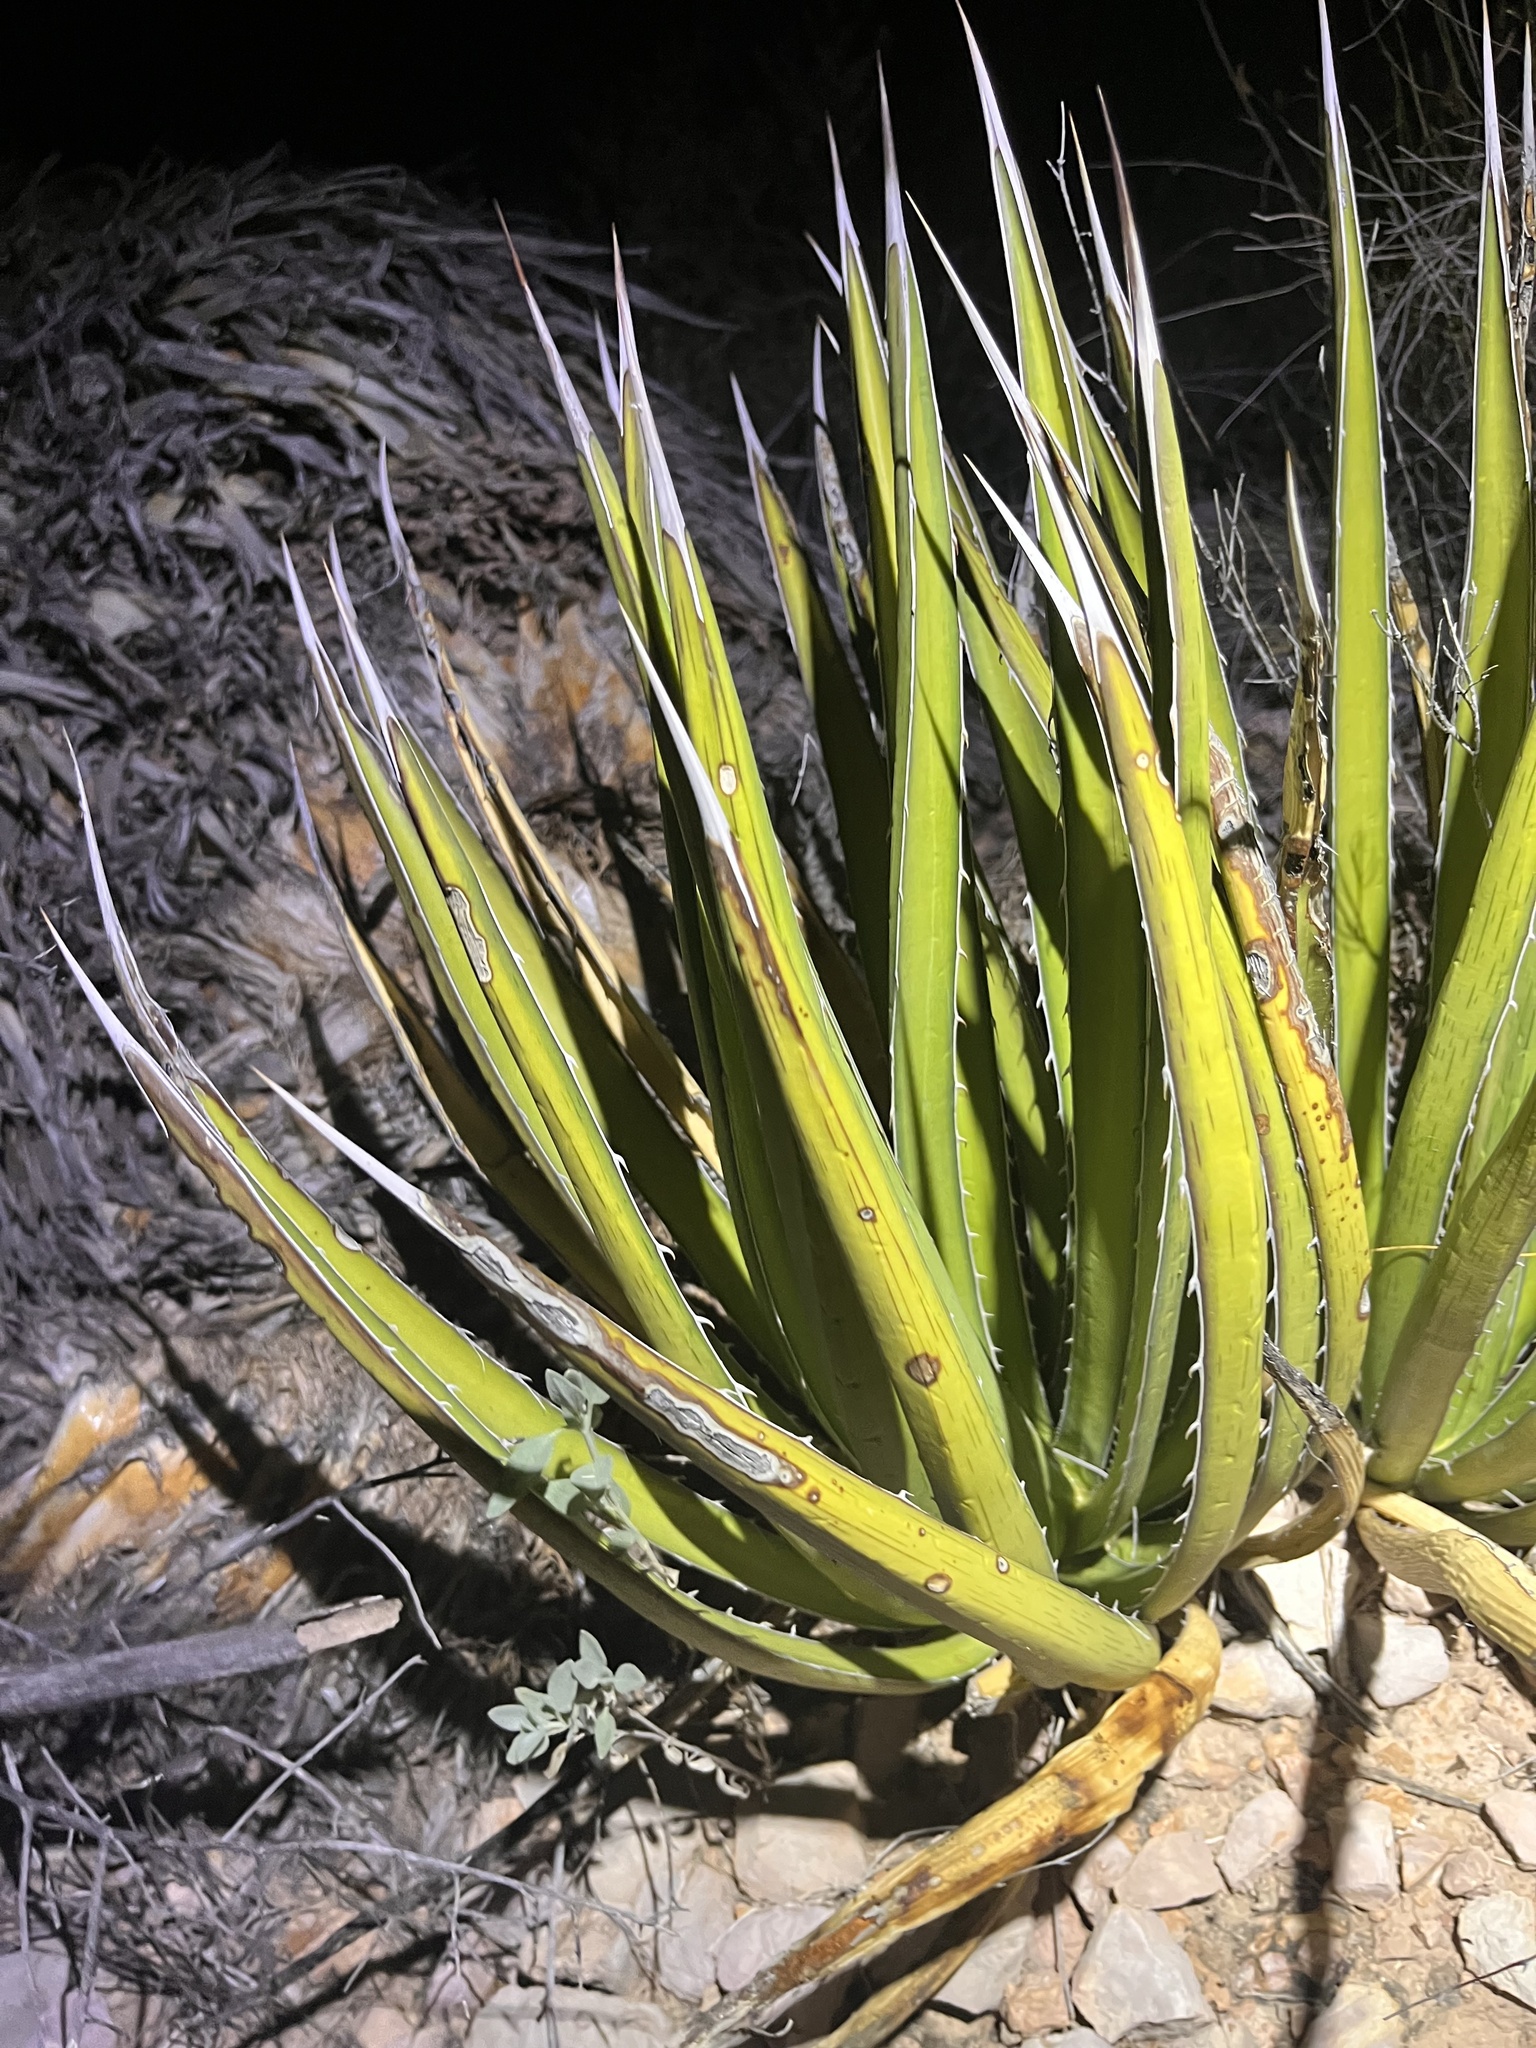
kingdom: Plantae
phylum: Tracheophyta
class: Liliopsida
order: Asparagales
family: Asparagaceae
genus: Agave
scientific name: Agave lechuguilla
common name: Lecheguilla agave
